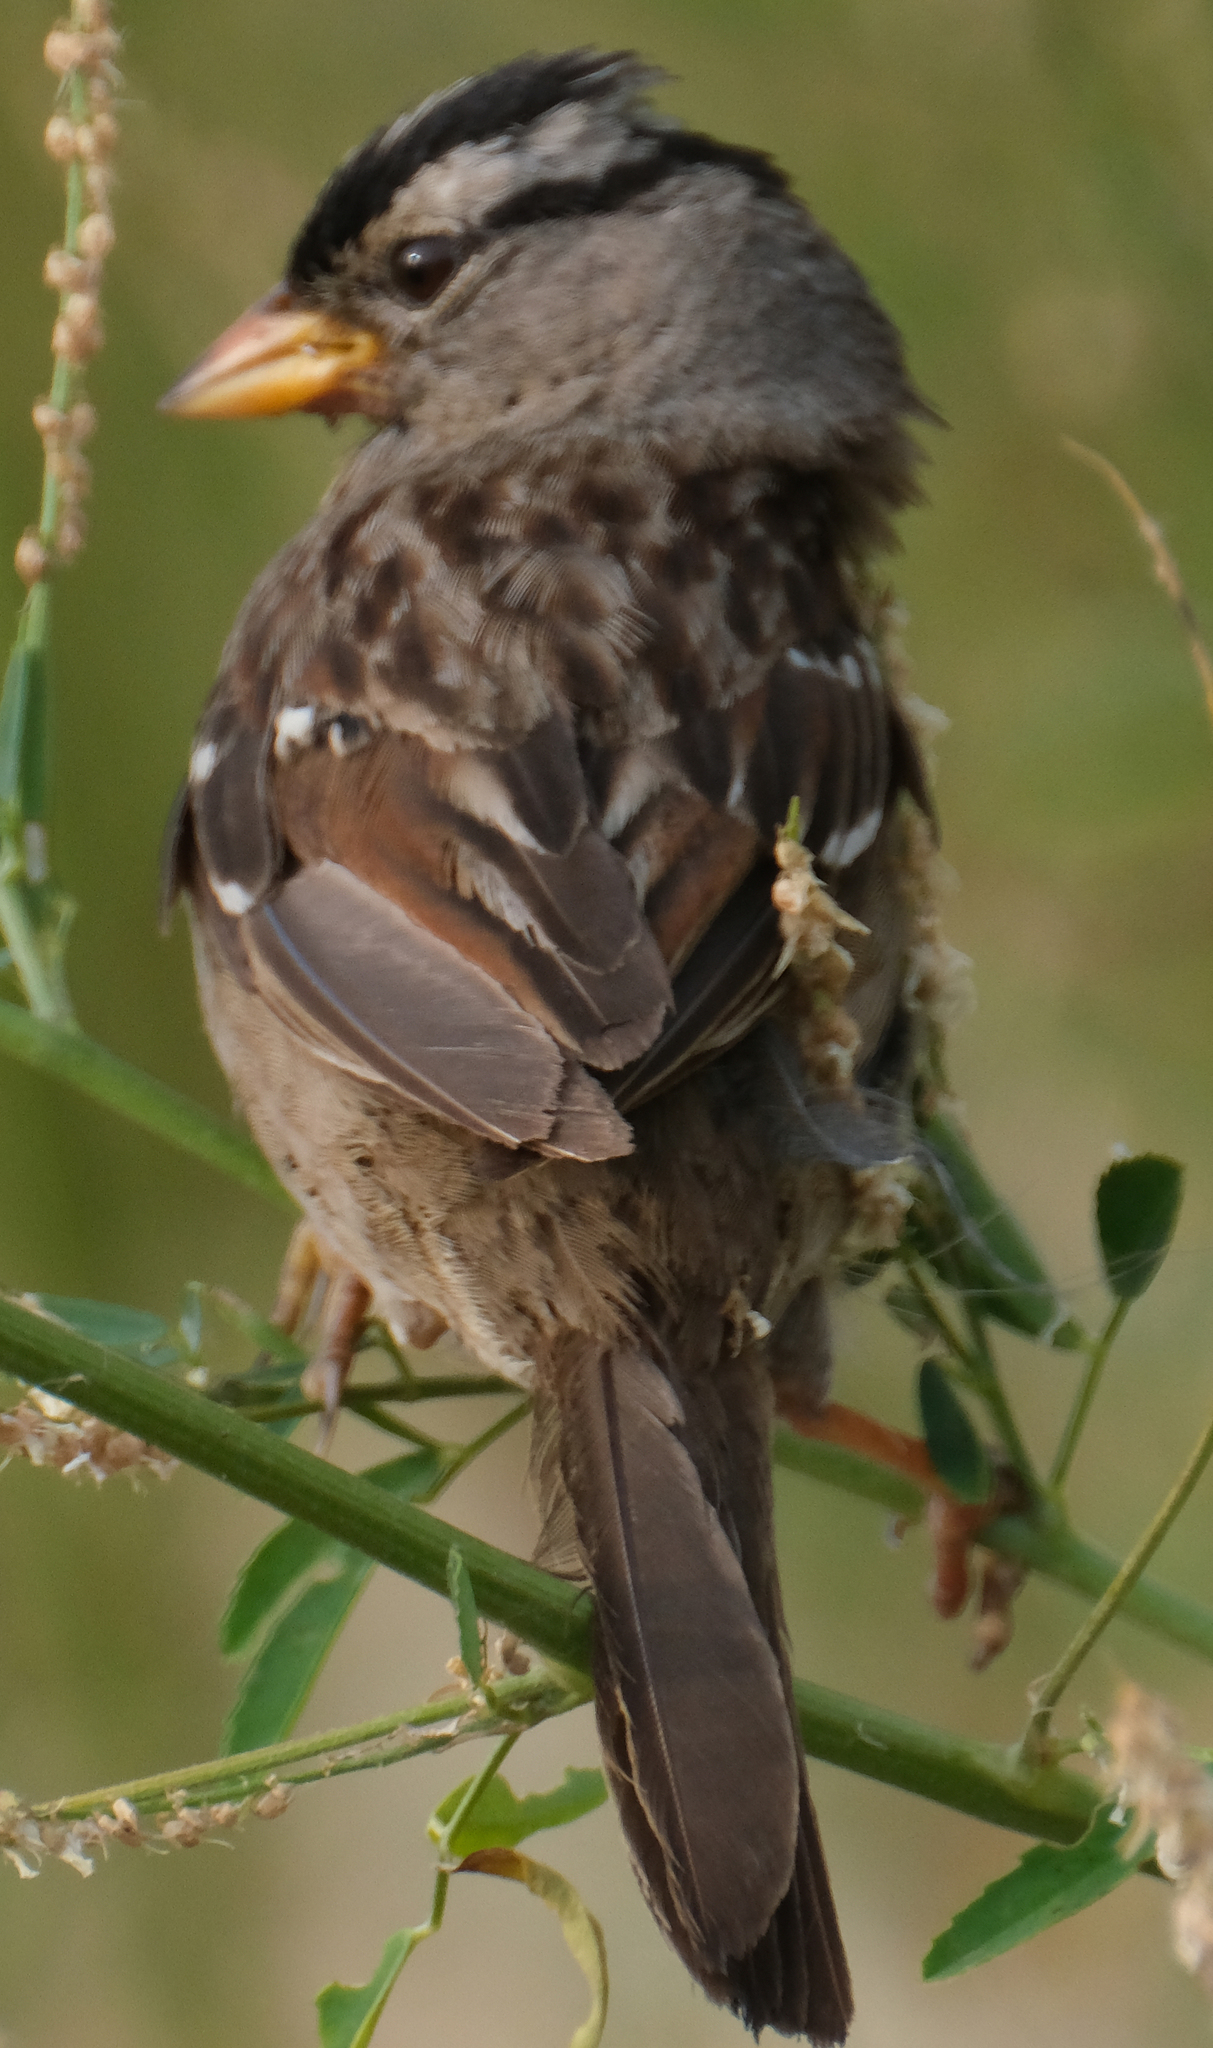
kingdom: Animalia
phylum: Chordata
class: Aves
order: Passeriformes
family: Passerellidae
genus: Zonotrichia
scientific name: Zonotrichia leucophrys
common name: White-crowned sparrow
